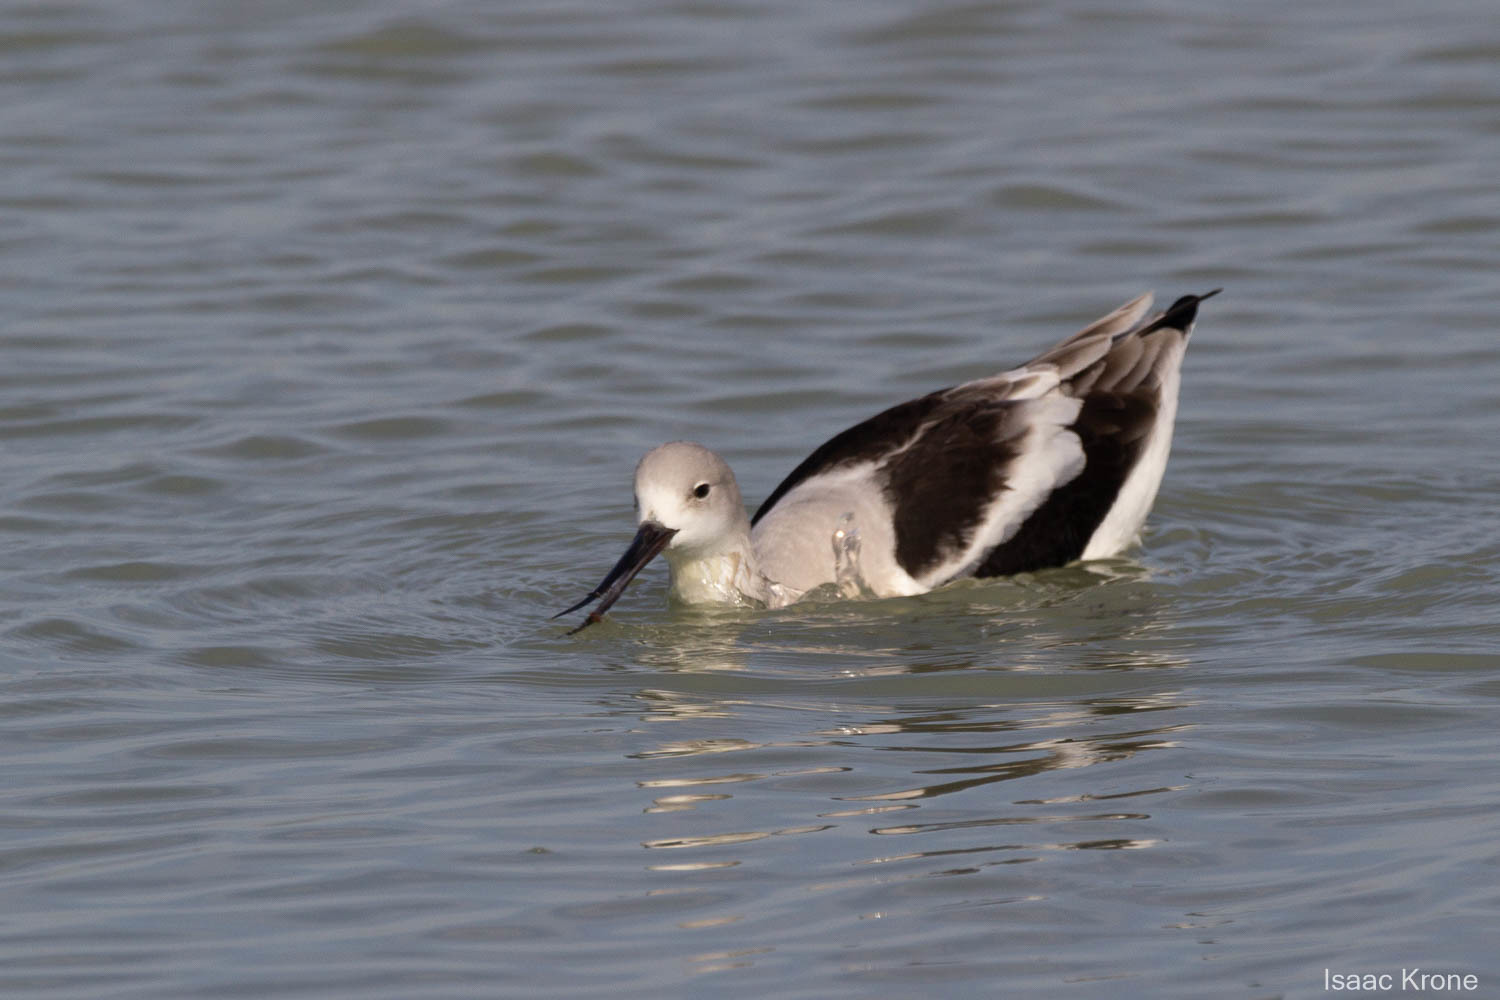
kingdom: Animalia
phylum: Chordata
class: Aves
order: Charadriiformes
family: Recurvirostridae
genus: Recurvirostra
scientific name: Recurvirostra americana
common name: American avocet
